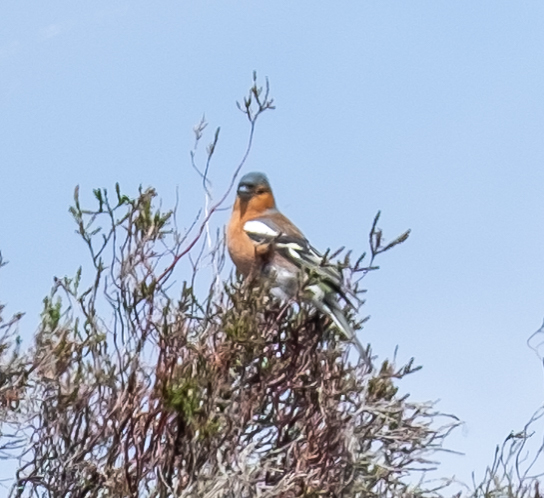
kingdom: Animalia
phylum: Chordata
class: Aves
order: Passeriformes
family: Fringillidae
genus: Fringilla
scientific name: Fringilla coelebs
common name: Common chaffinch
